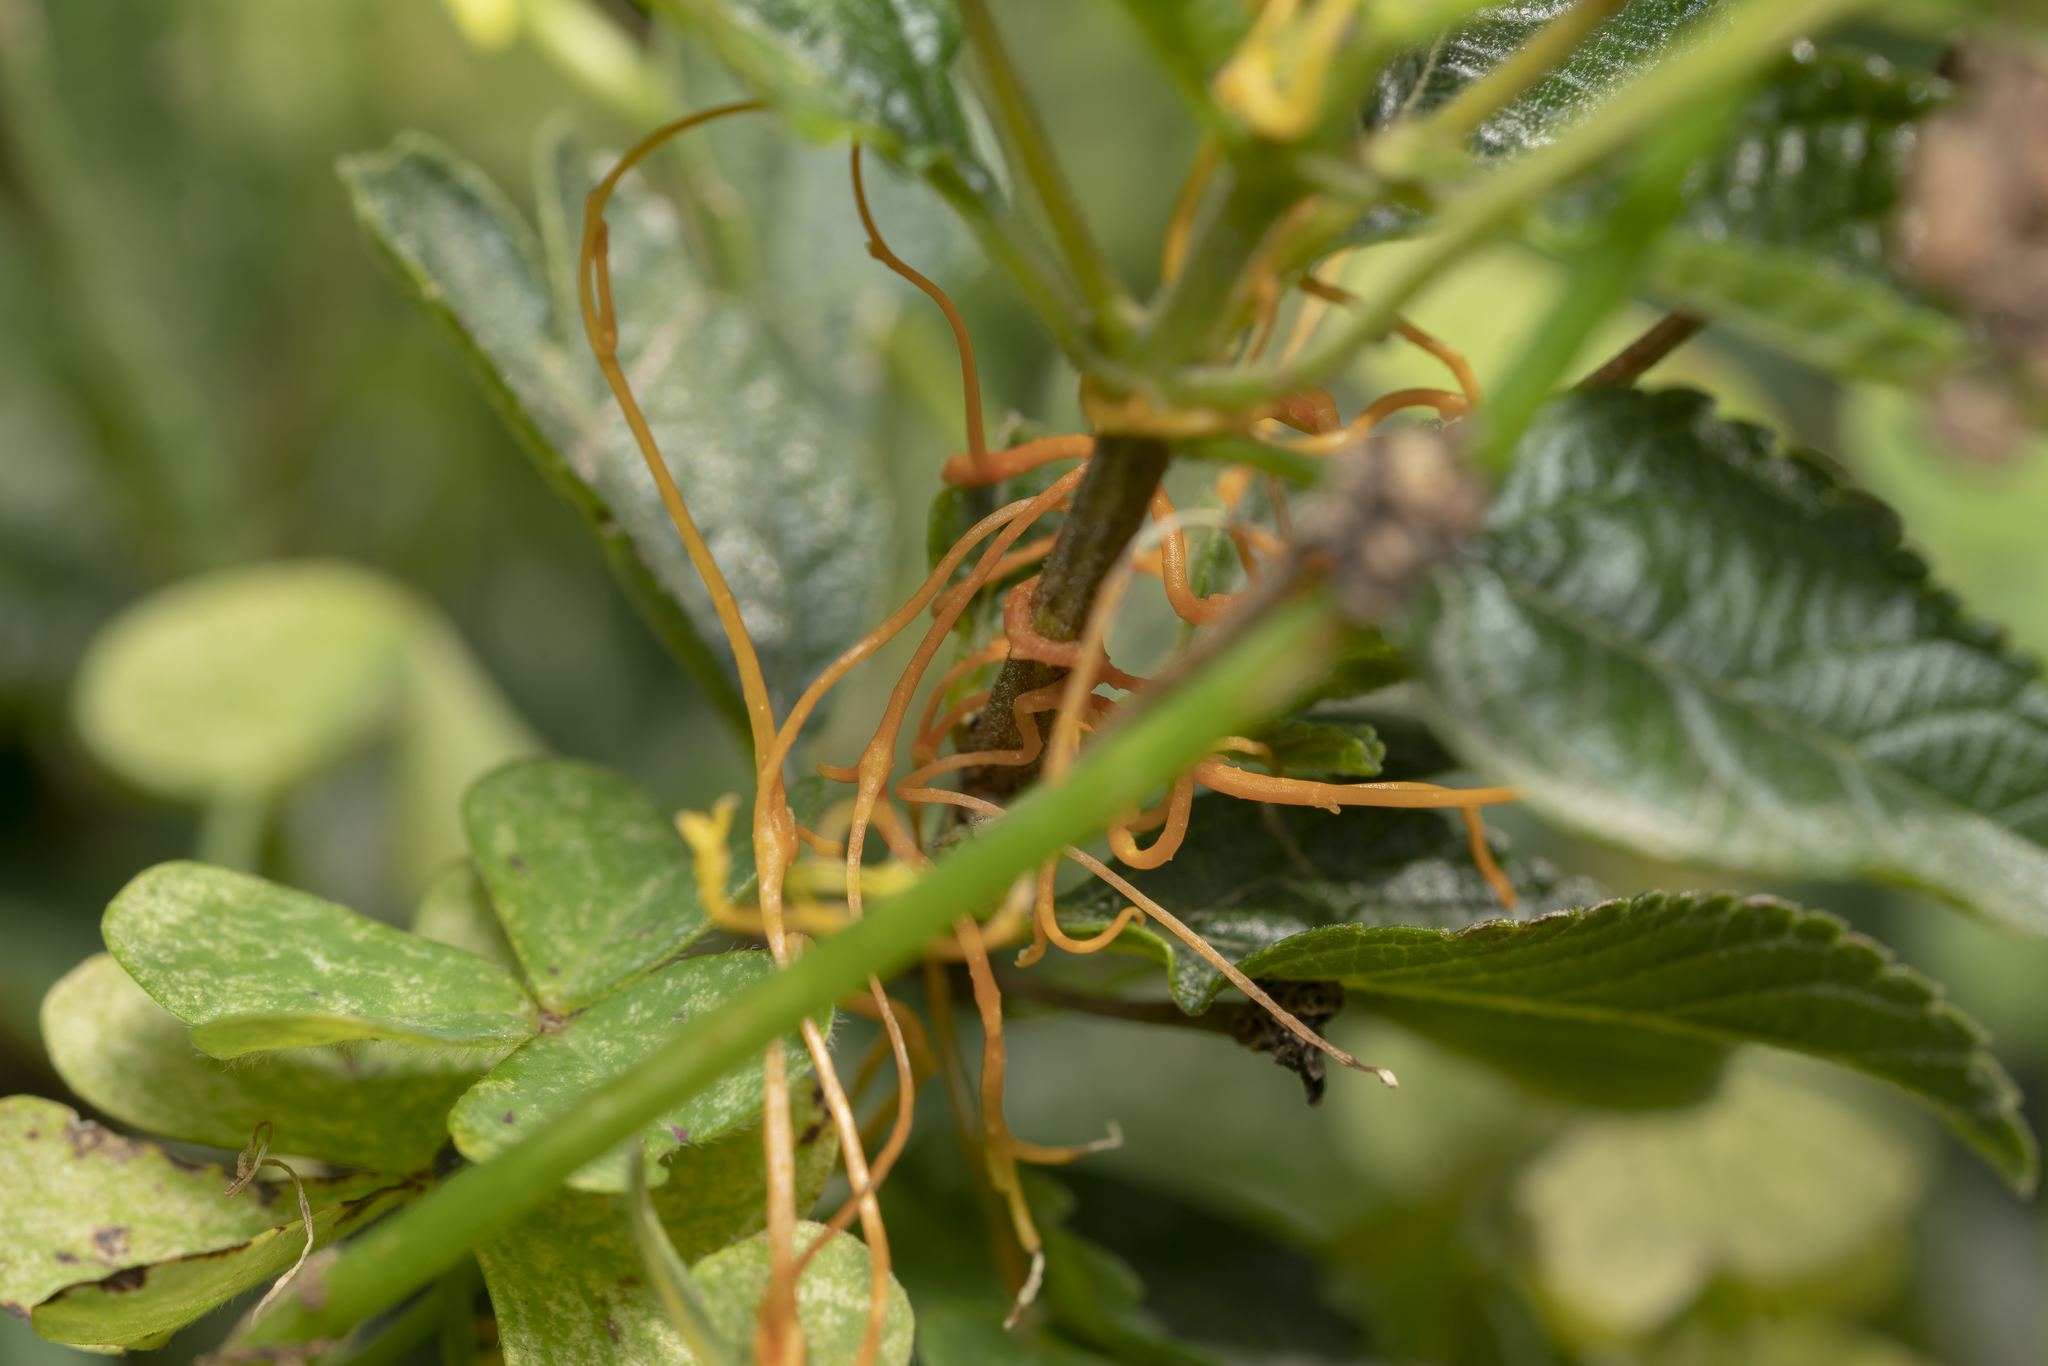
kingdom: Plantae
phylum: Tracheophyta
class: Magnoliopsida
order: Solanales
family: Convolvulaceae
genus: Cuscuta
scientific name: Cuscuta
